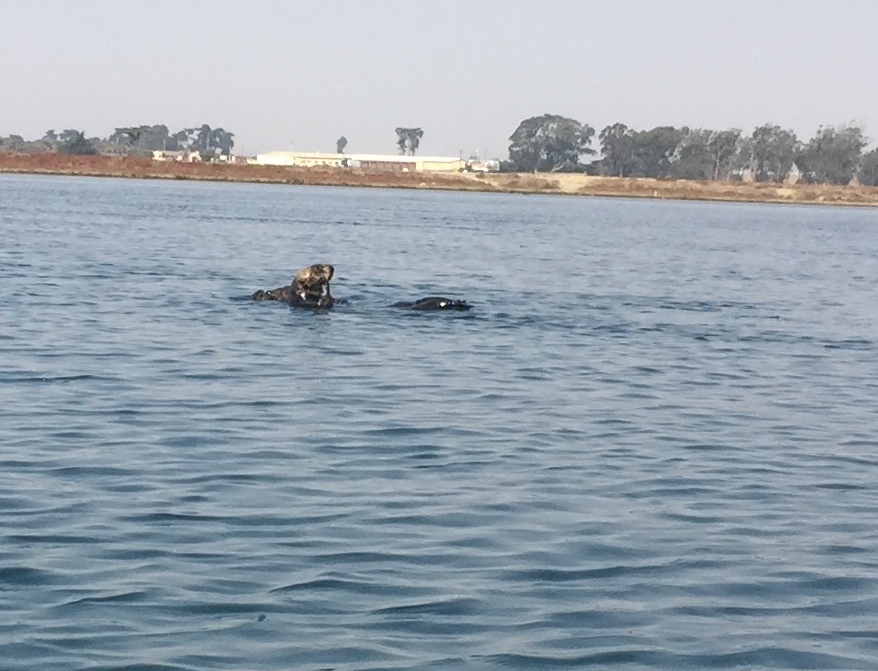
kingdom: Animalia
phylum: Chordata
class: Mammalia
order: Carnivora
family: Mustelidae
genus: Enhydra
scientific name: Enhydra lutris
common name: Sea otter
